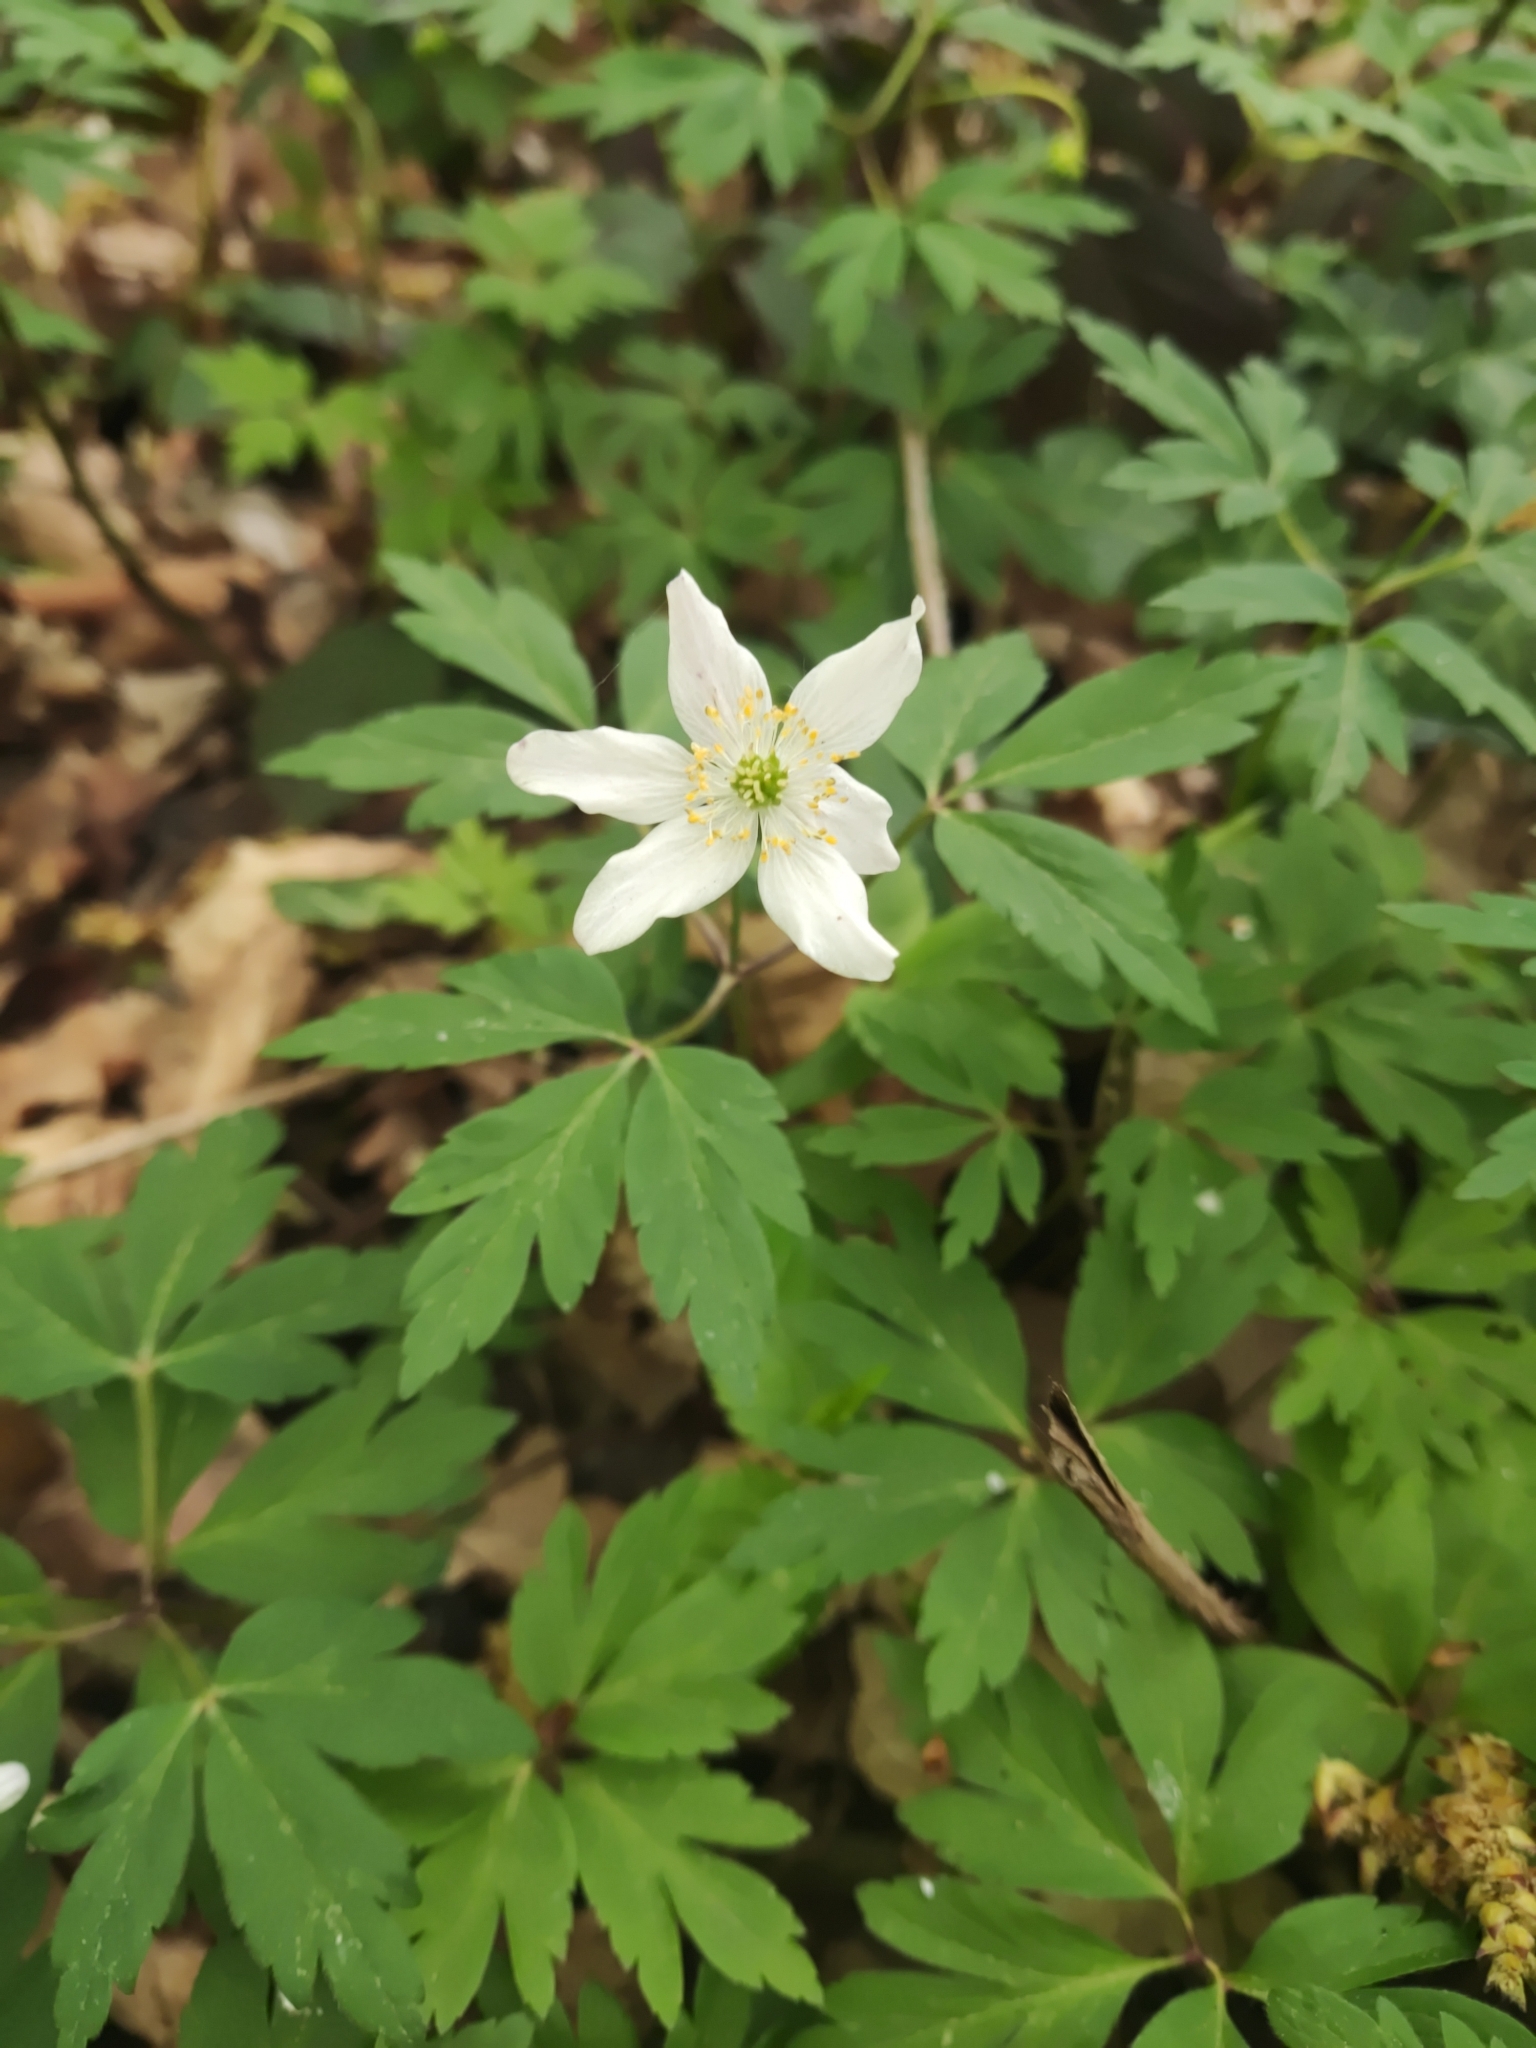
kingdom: Plantae
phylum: Tracheophyta
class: Magnoliopsida
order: Ranunculales
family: Ranunculaceae
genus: Anemone
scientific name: Anemone nemorosa
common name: Wood anemone
